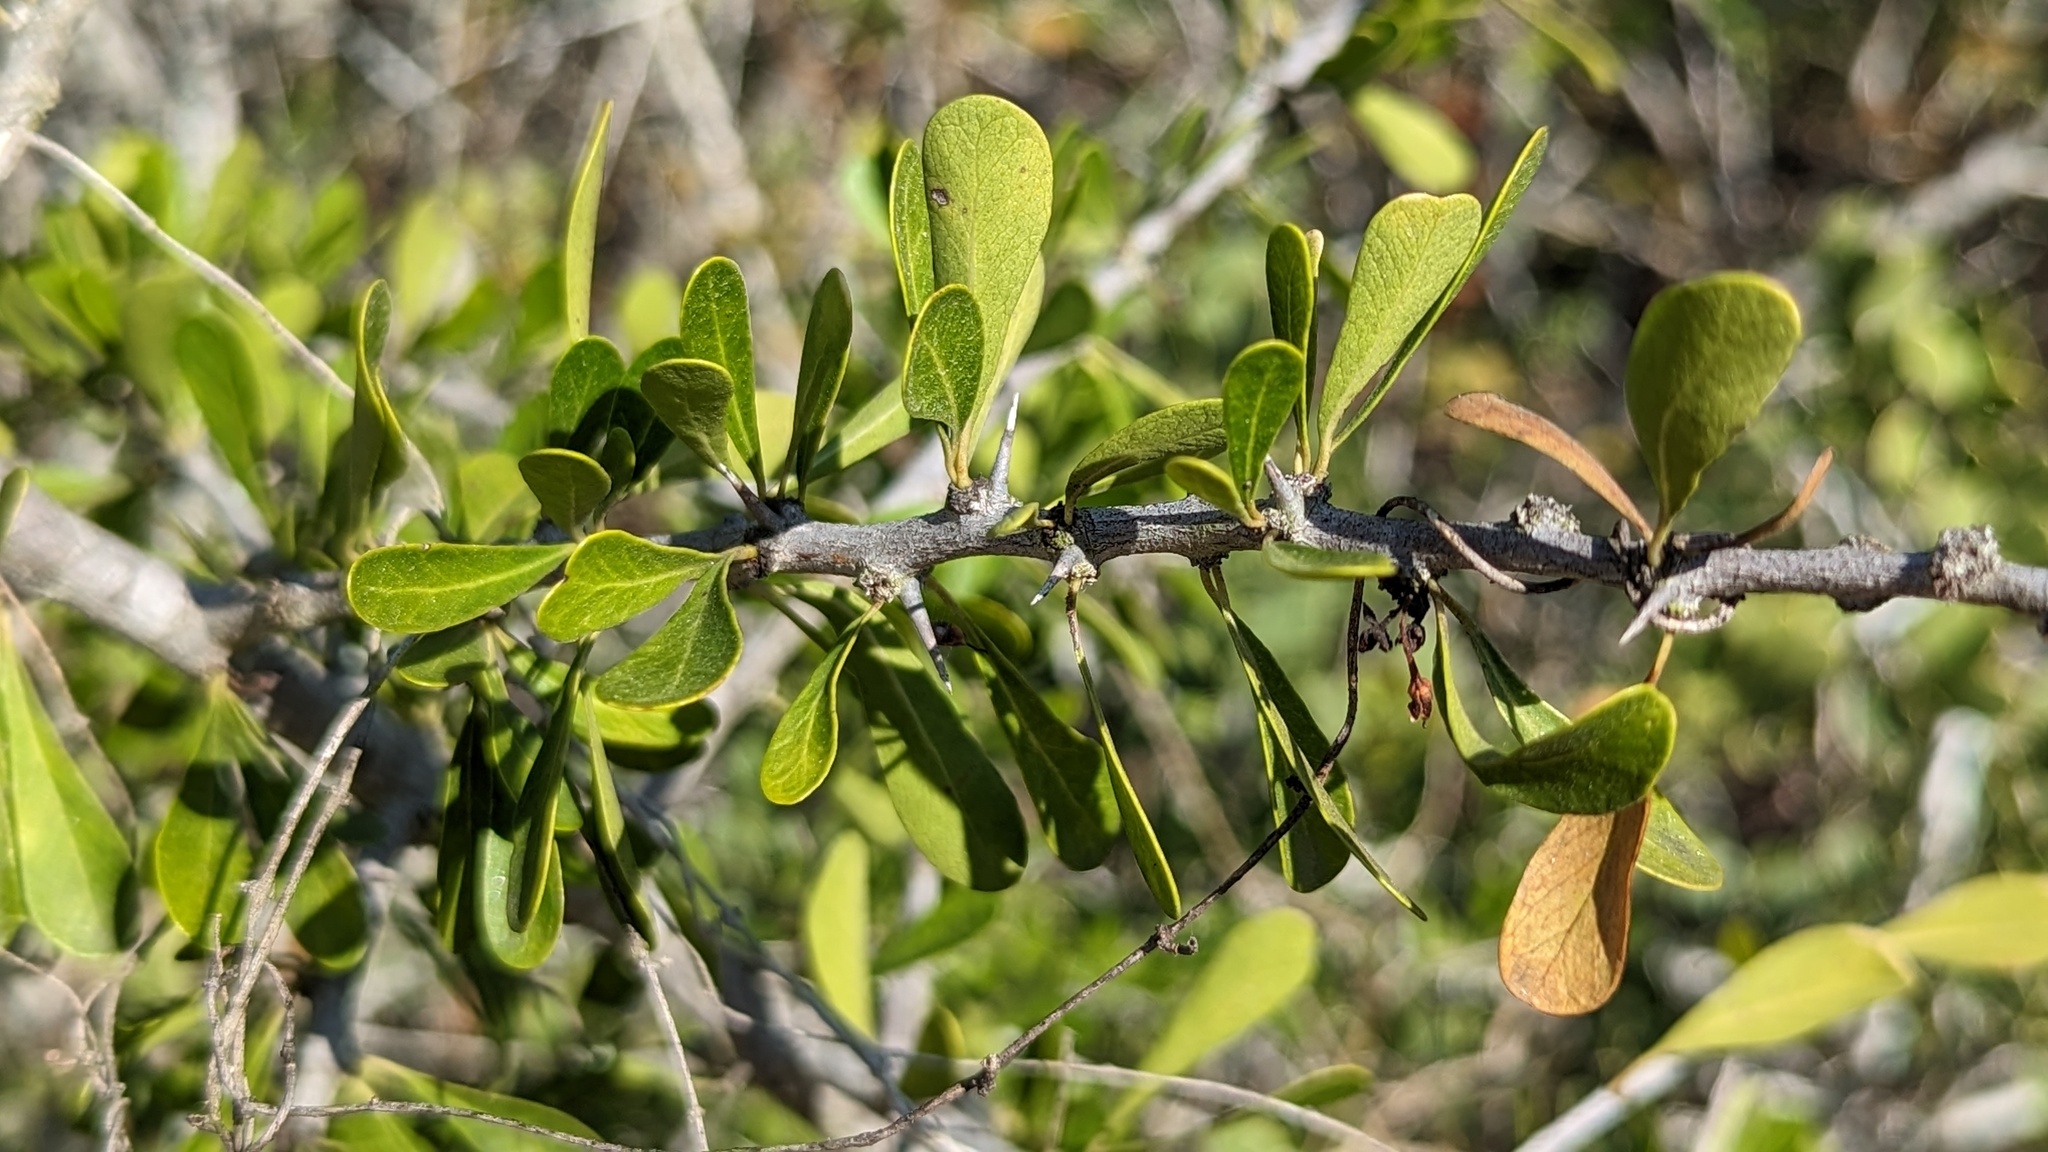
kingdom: Plantae
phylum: Tracheophyta
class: Magnoliopsida
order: Ericales
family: Sapotaceae
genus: Sideroxylon
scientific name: Sideroxylon celastrinum
